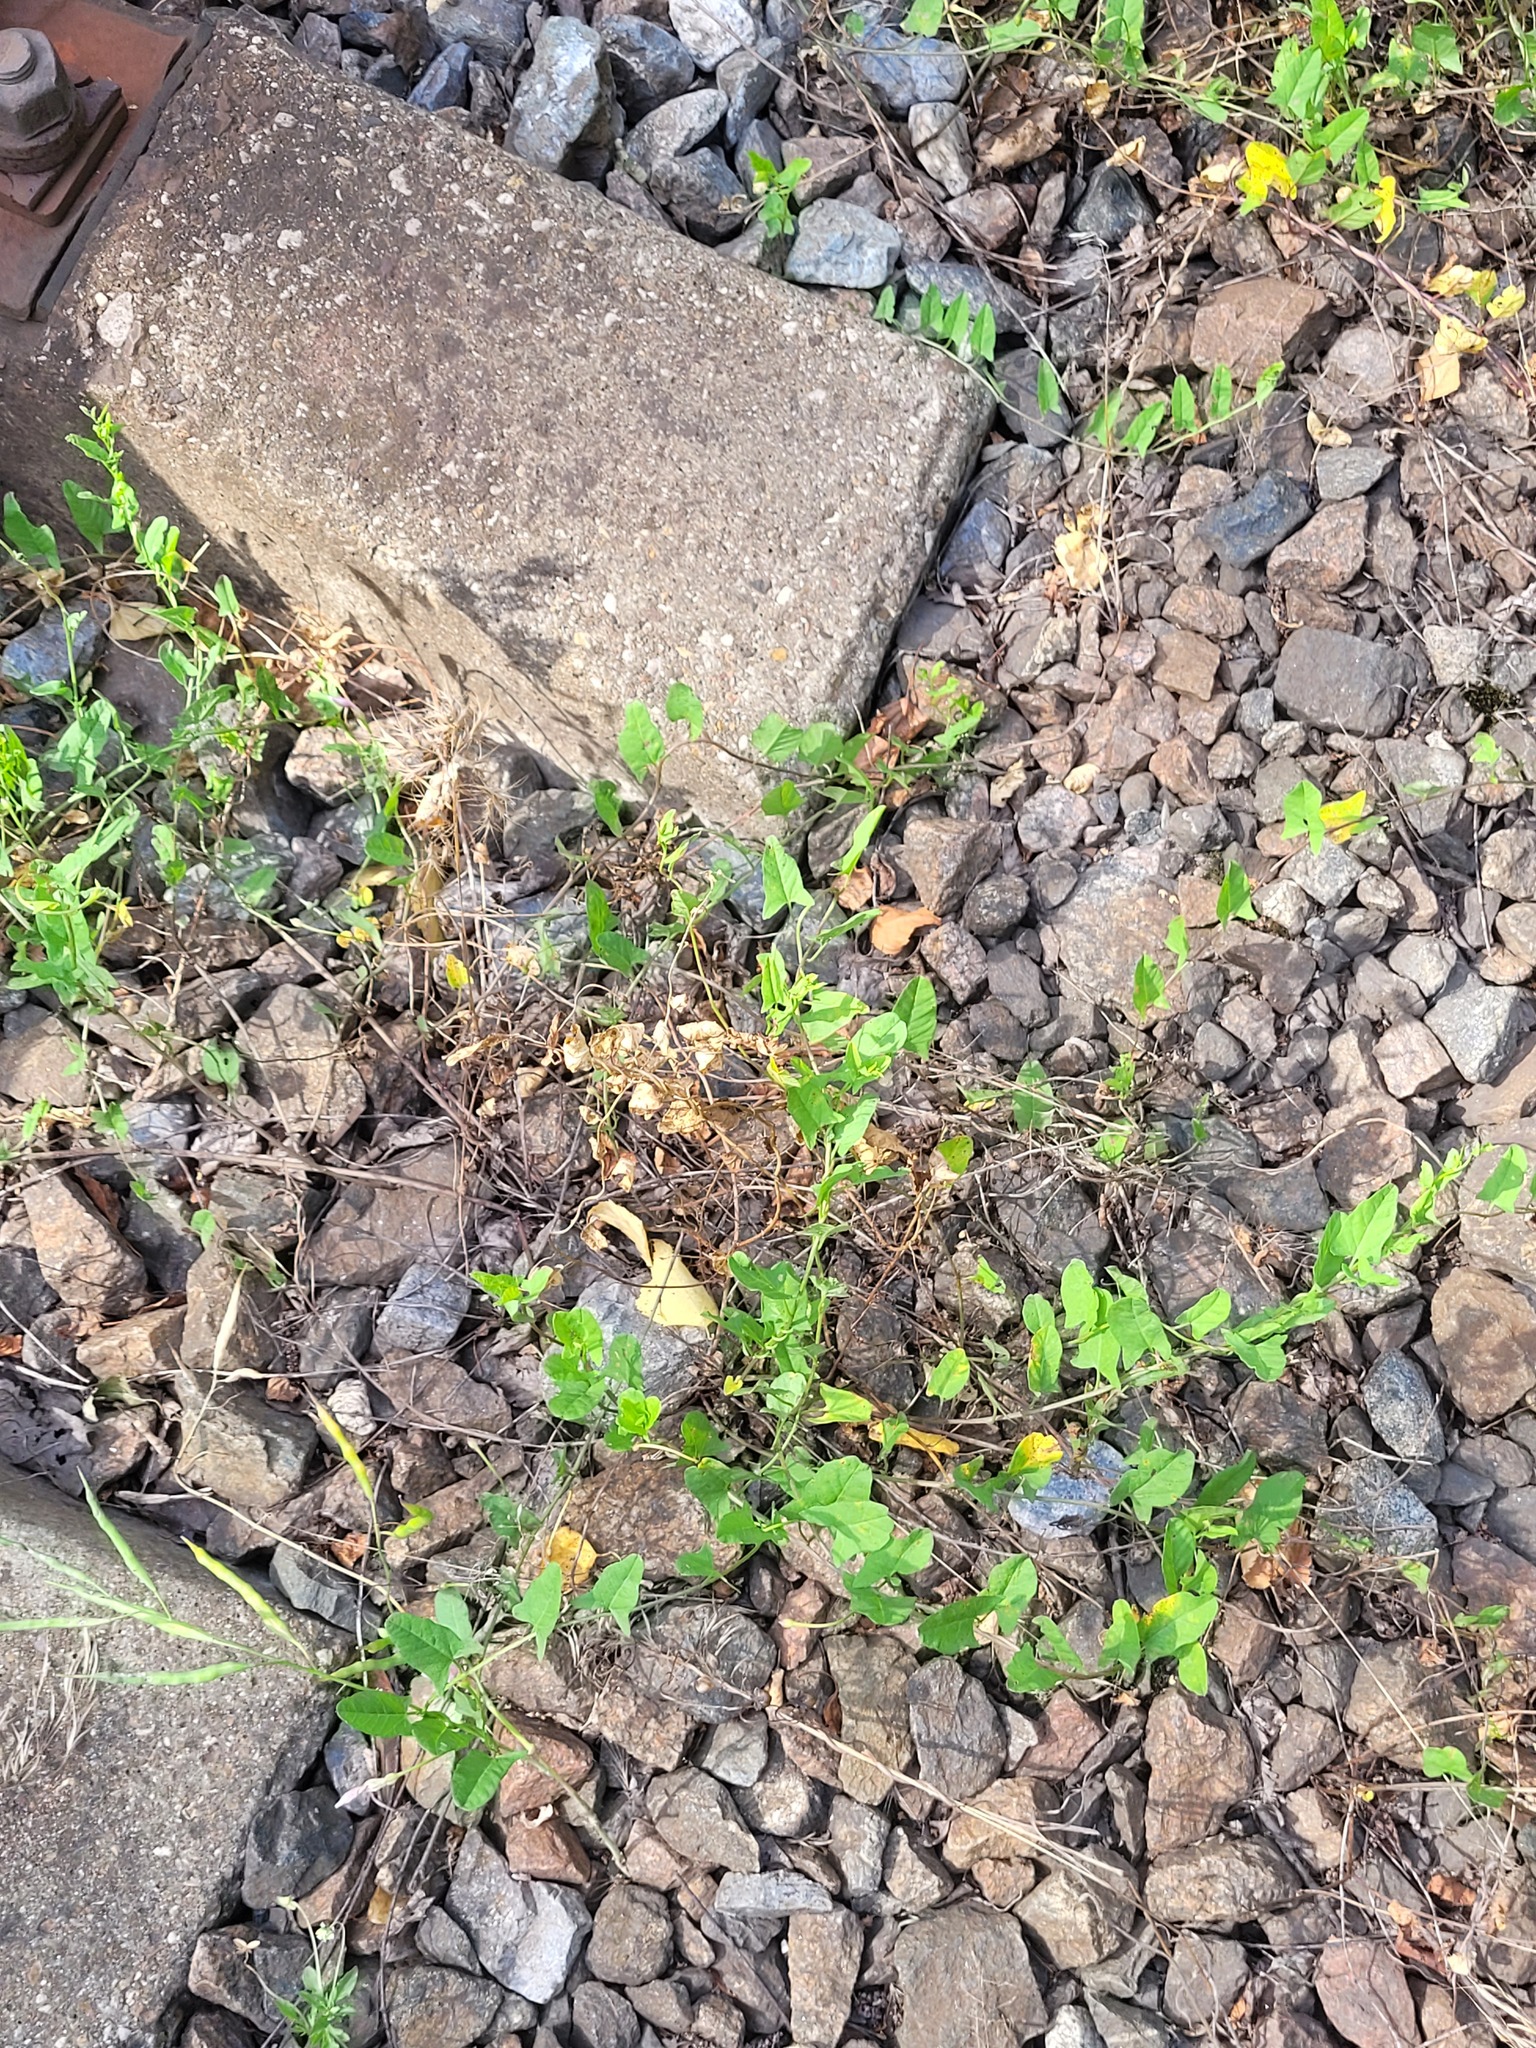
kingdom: Plantae
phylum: Tracheophyta
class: Magnoliopsida
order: Solanales
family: Convolvulaceae
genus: Convolvulus
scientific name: Convolvulus arvensis
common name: Field bindweed
